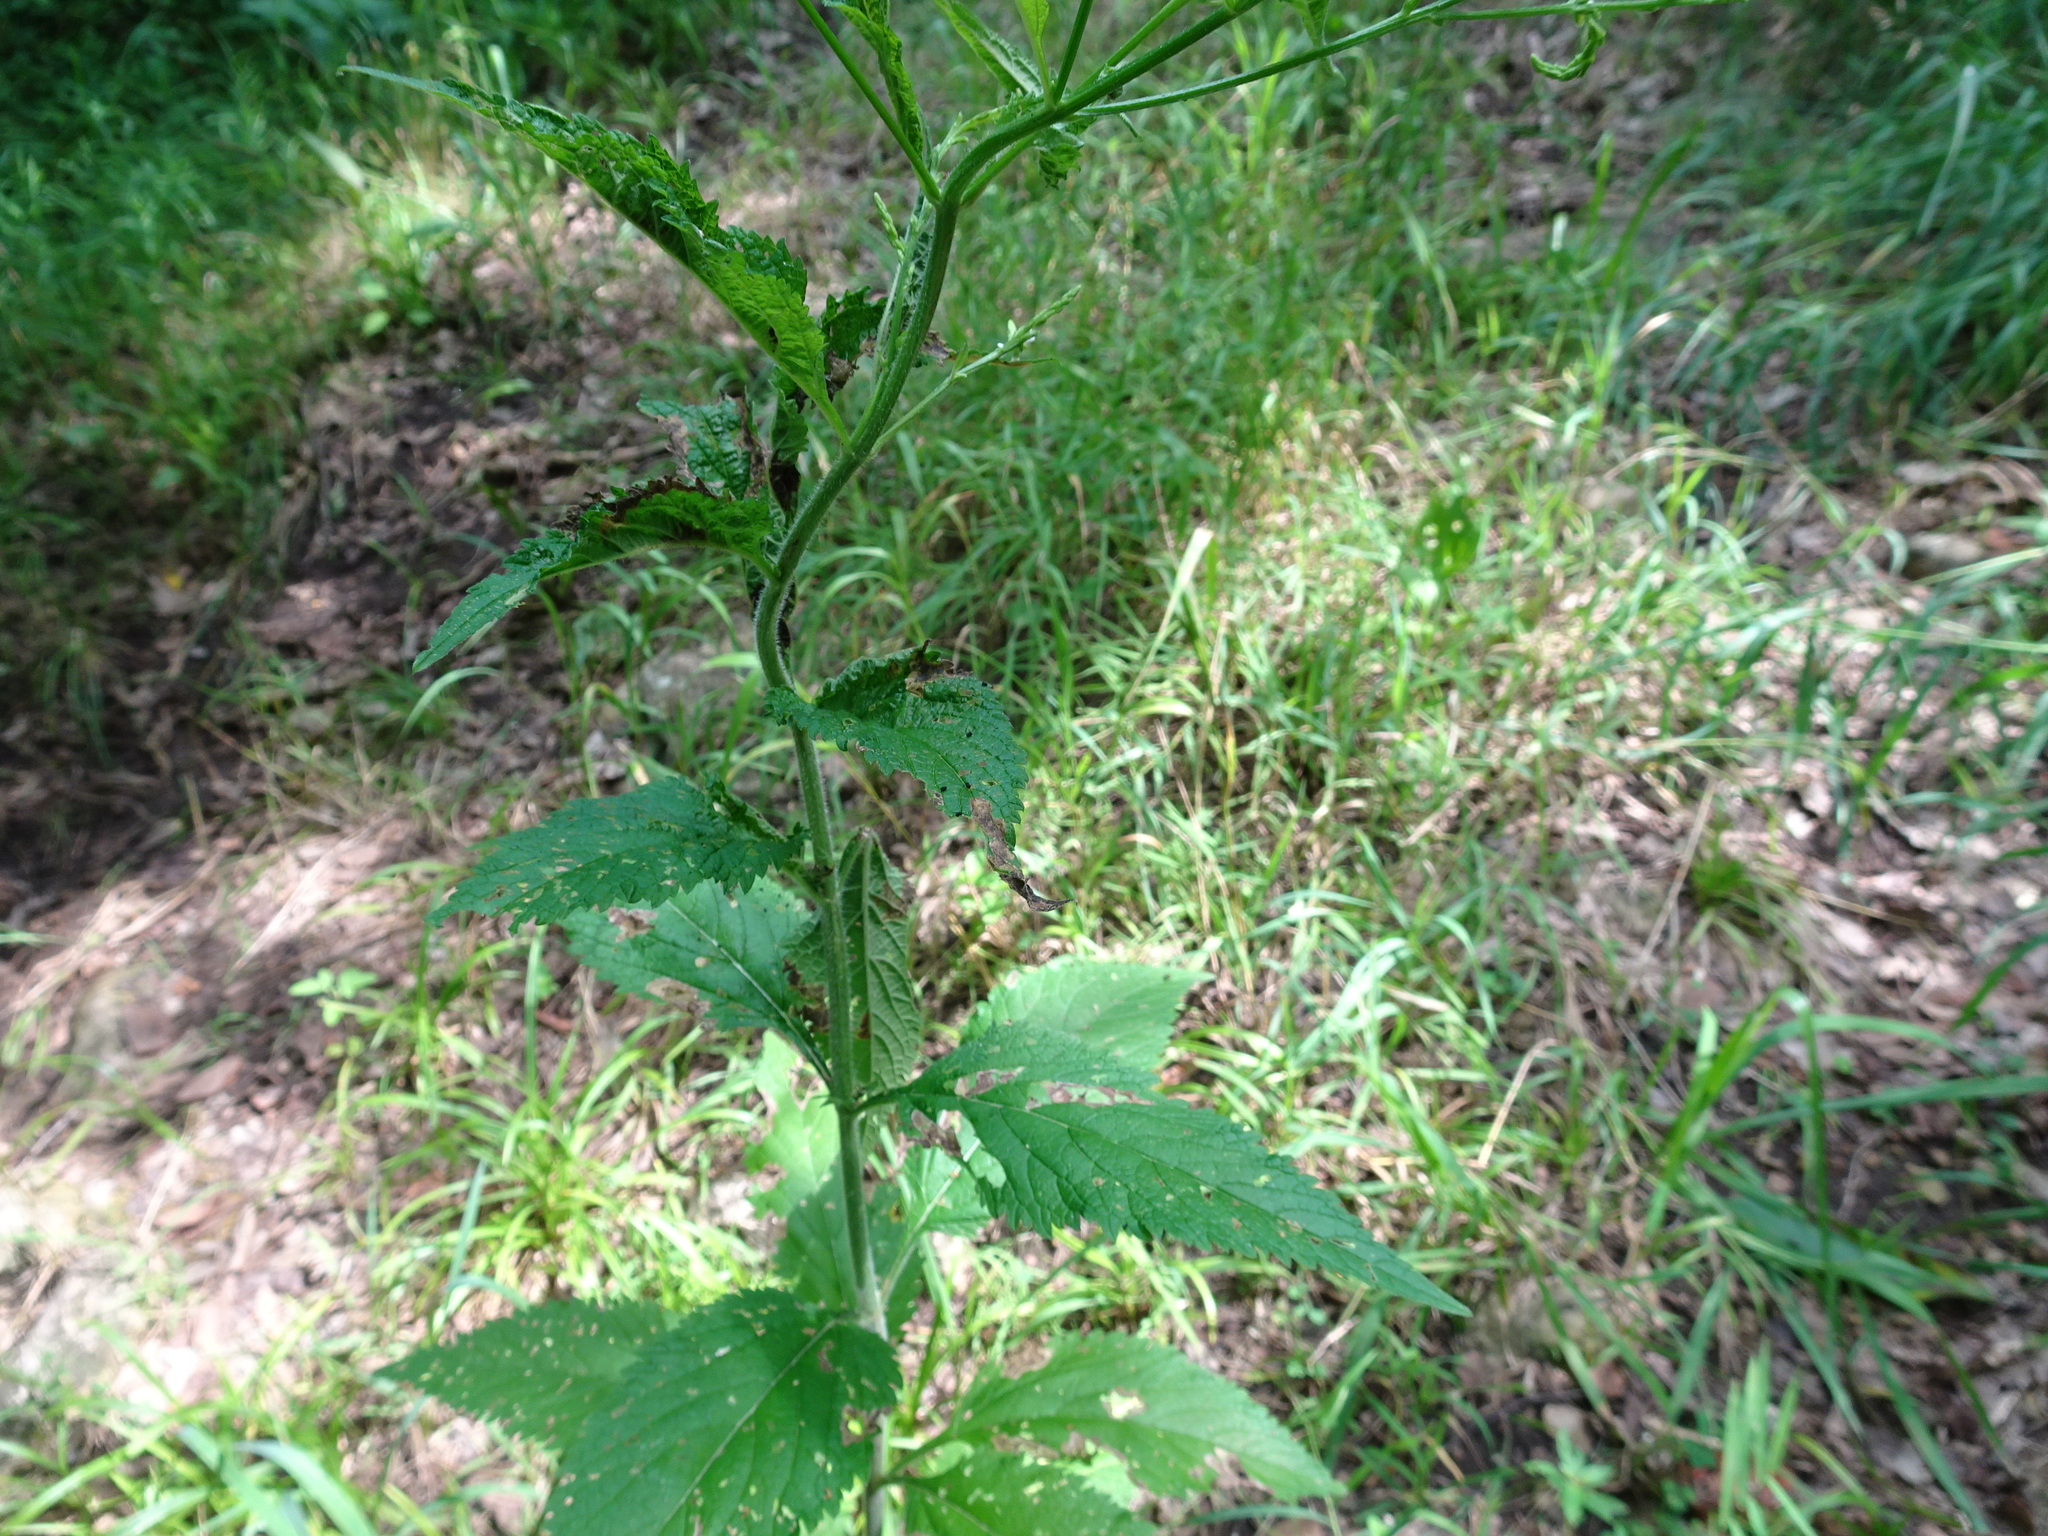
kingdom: Plantae
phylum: Tracheophyta
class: Magnoliopsida
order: Lamiales
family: Verbenaceae
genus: Verbena
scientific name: Verbena urticifolia
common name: Nettle-leaved vervain
